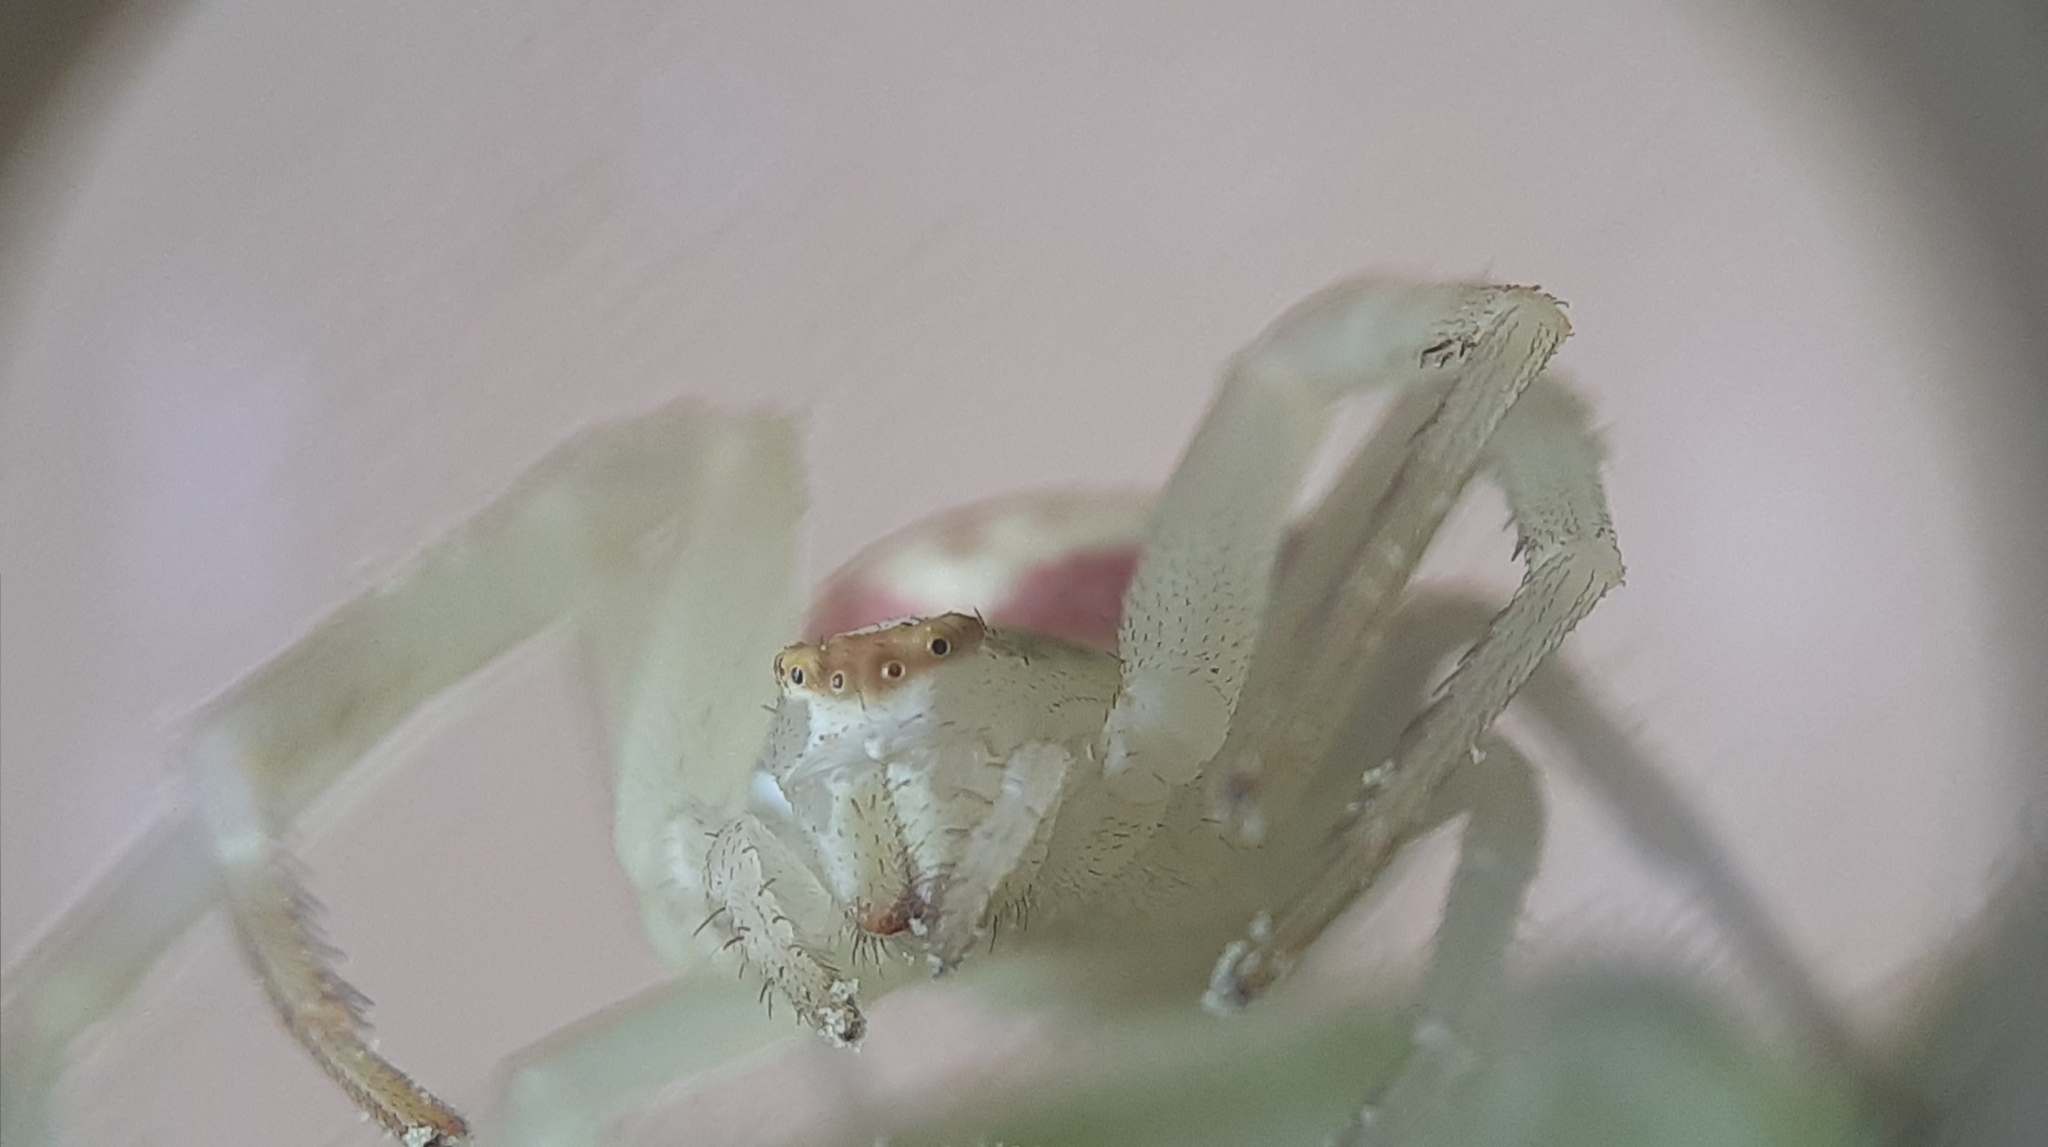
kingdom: Animalia
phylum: Arthropoda
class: Arachnida
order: Araneae
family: Thomisidae
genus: Misumena
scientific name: Misumena vatia
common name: Goldenrod crab spider
